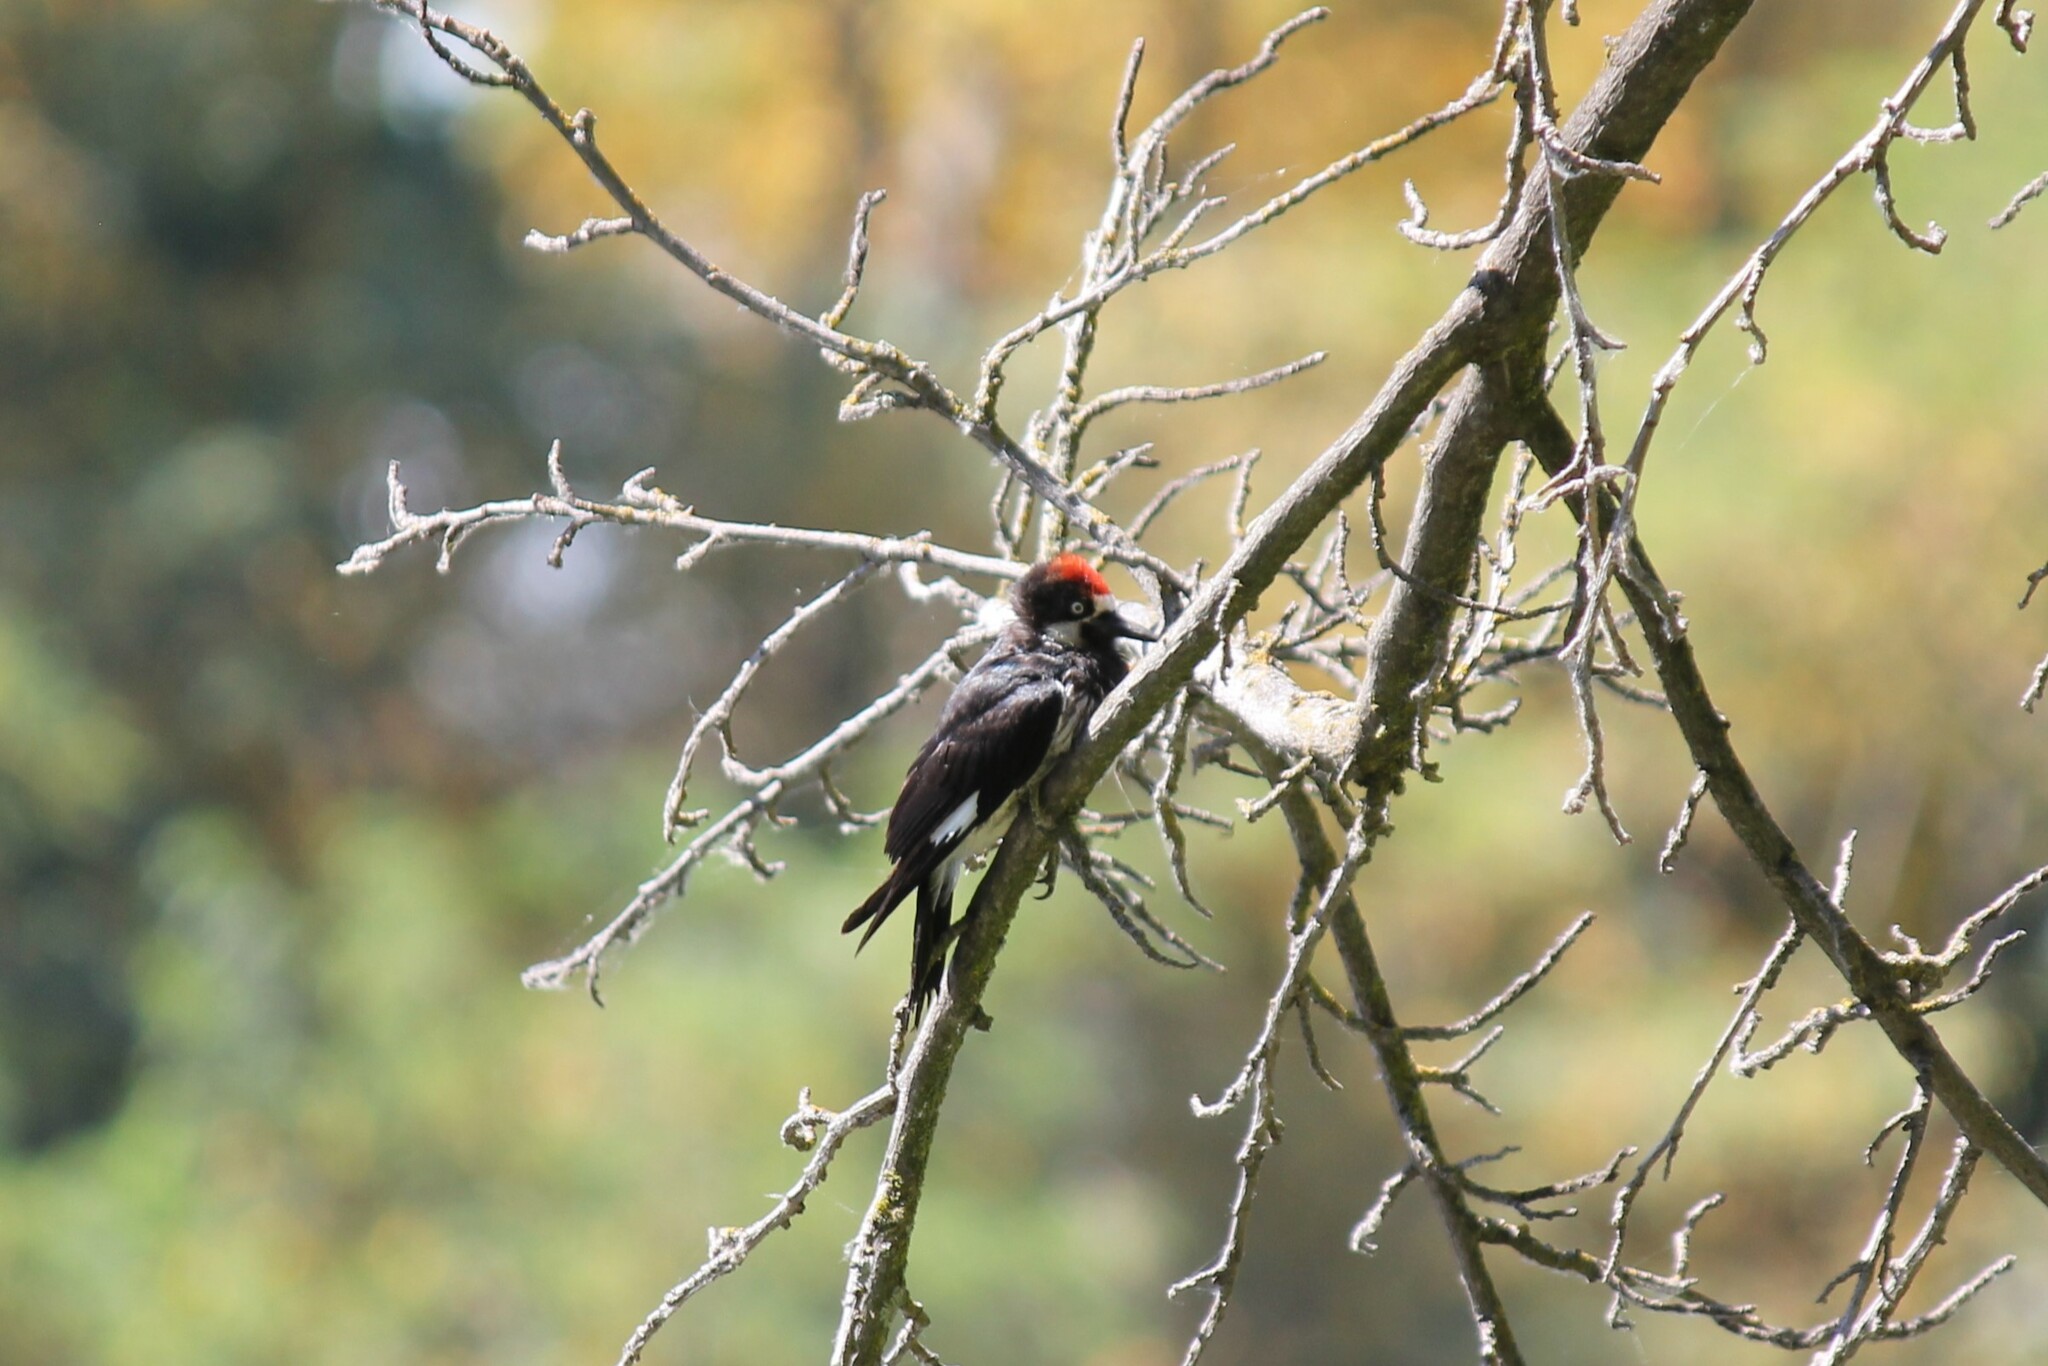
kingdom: Animalia
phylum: Chordata
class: Aves
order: Piciformes
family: Picidae
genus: Melanerpes
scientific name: Melanerpes formicivorus
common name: Acorn woodpecker
